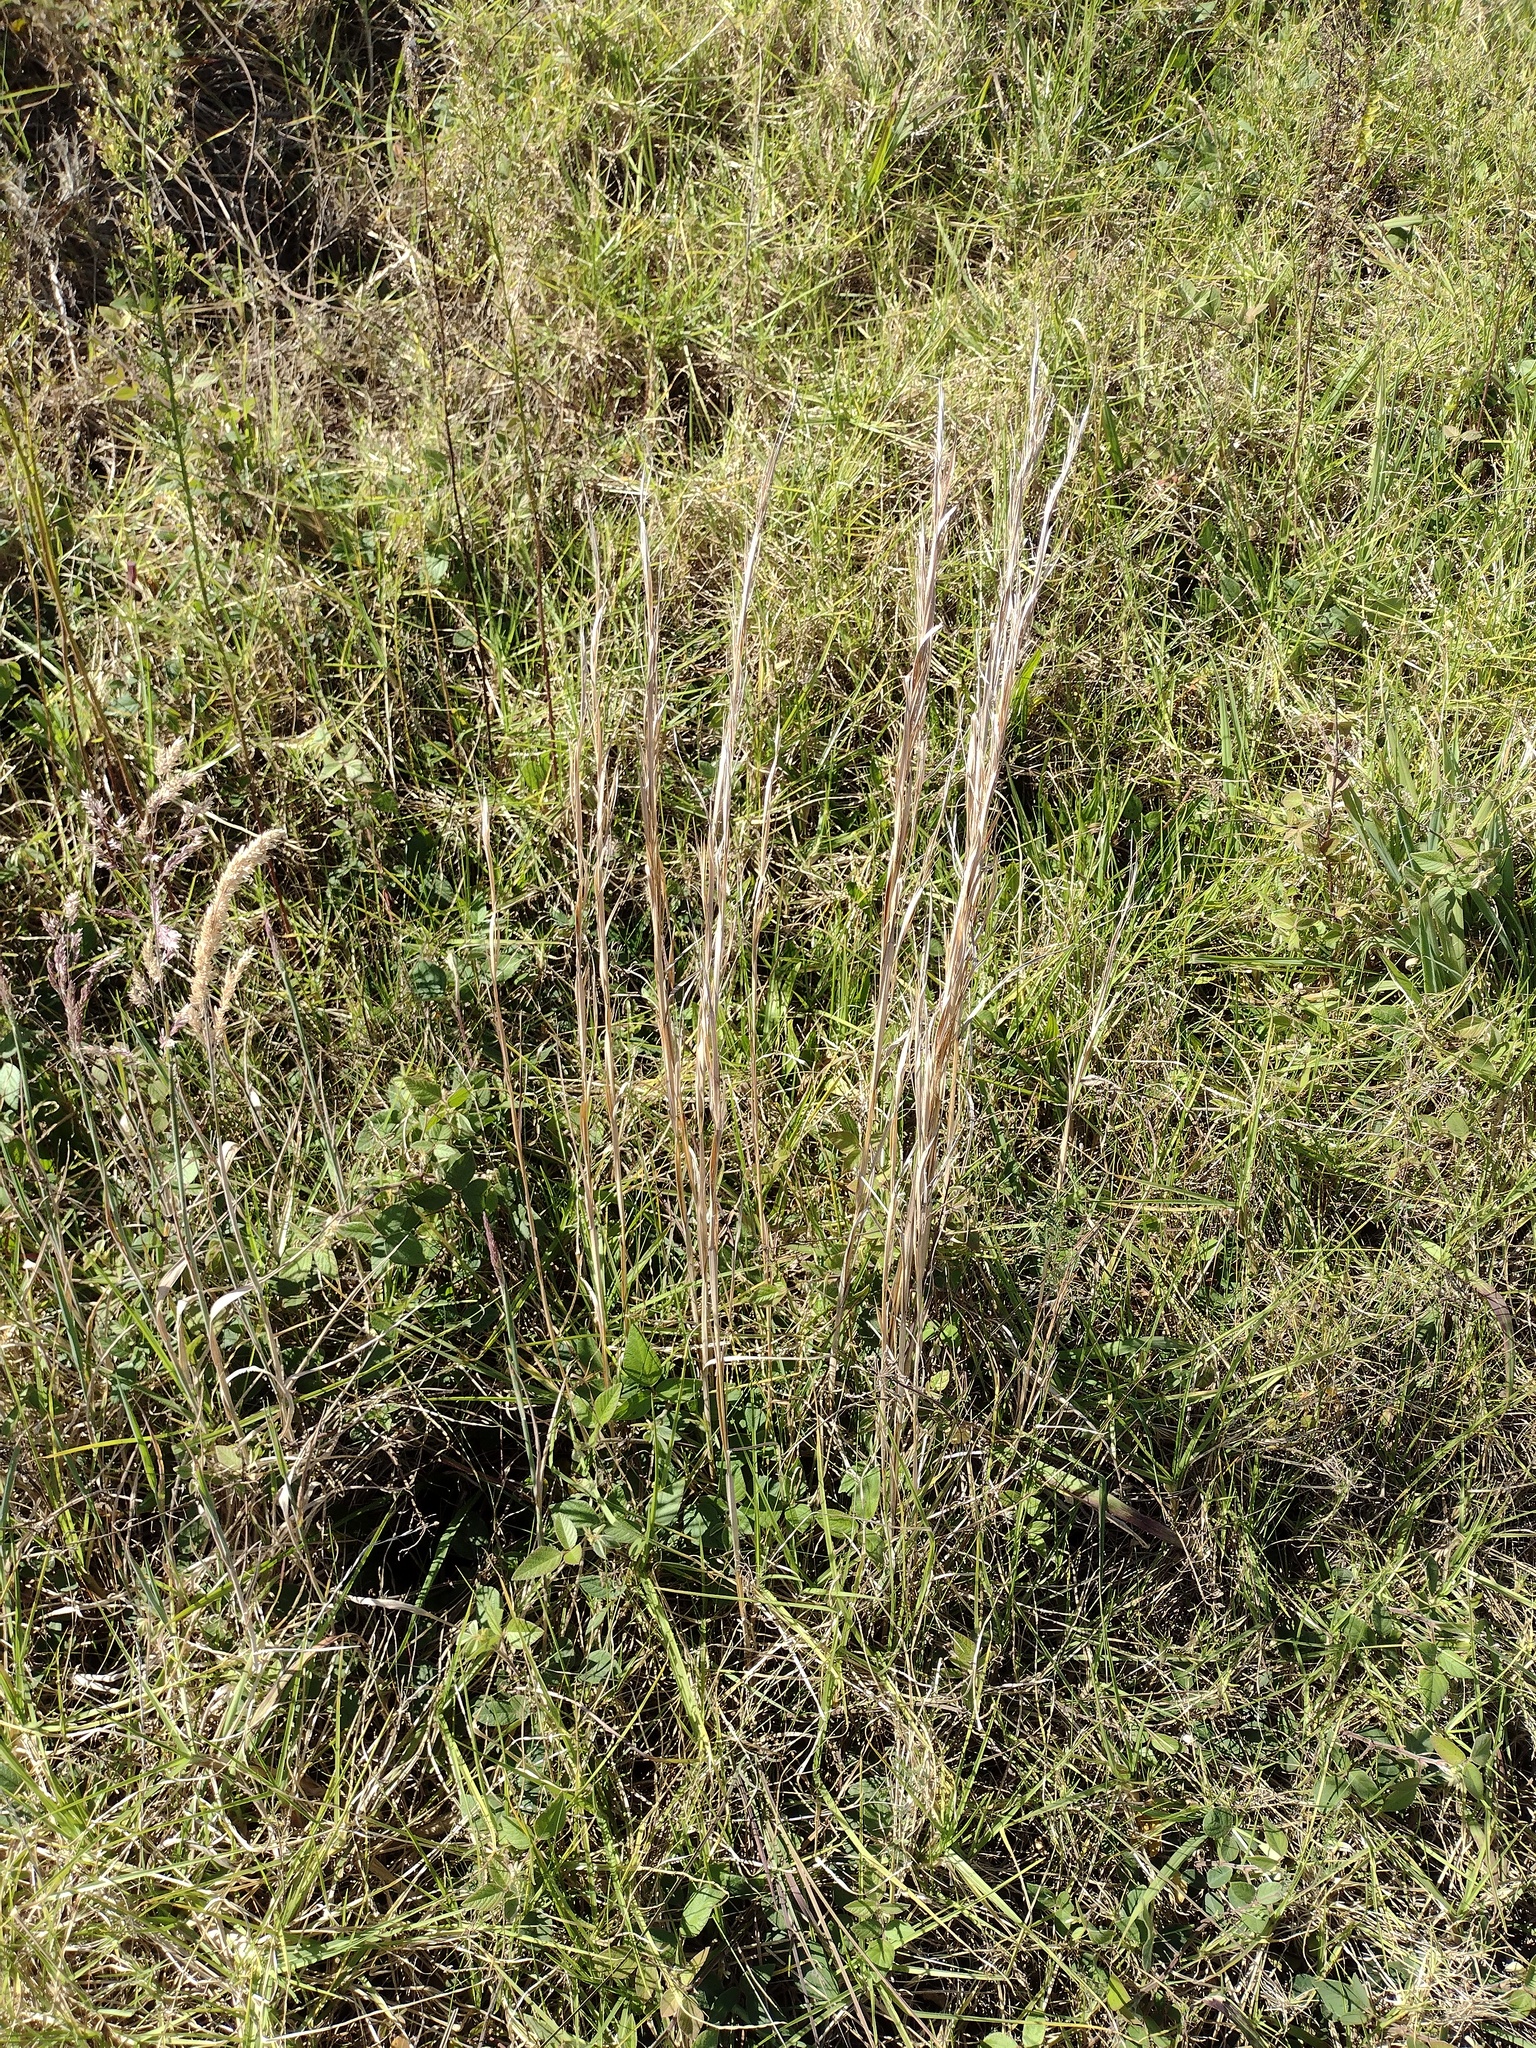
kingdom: Plantae
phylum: Tracheophyta
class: Liliopsida
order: Poales
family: Poaceae
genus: Andropogon
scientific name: Andropogon virginicus
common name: Broomsedge bluestem
